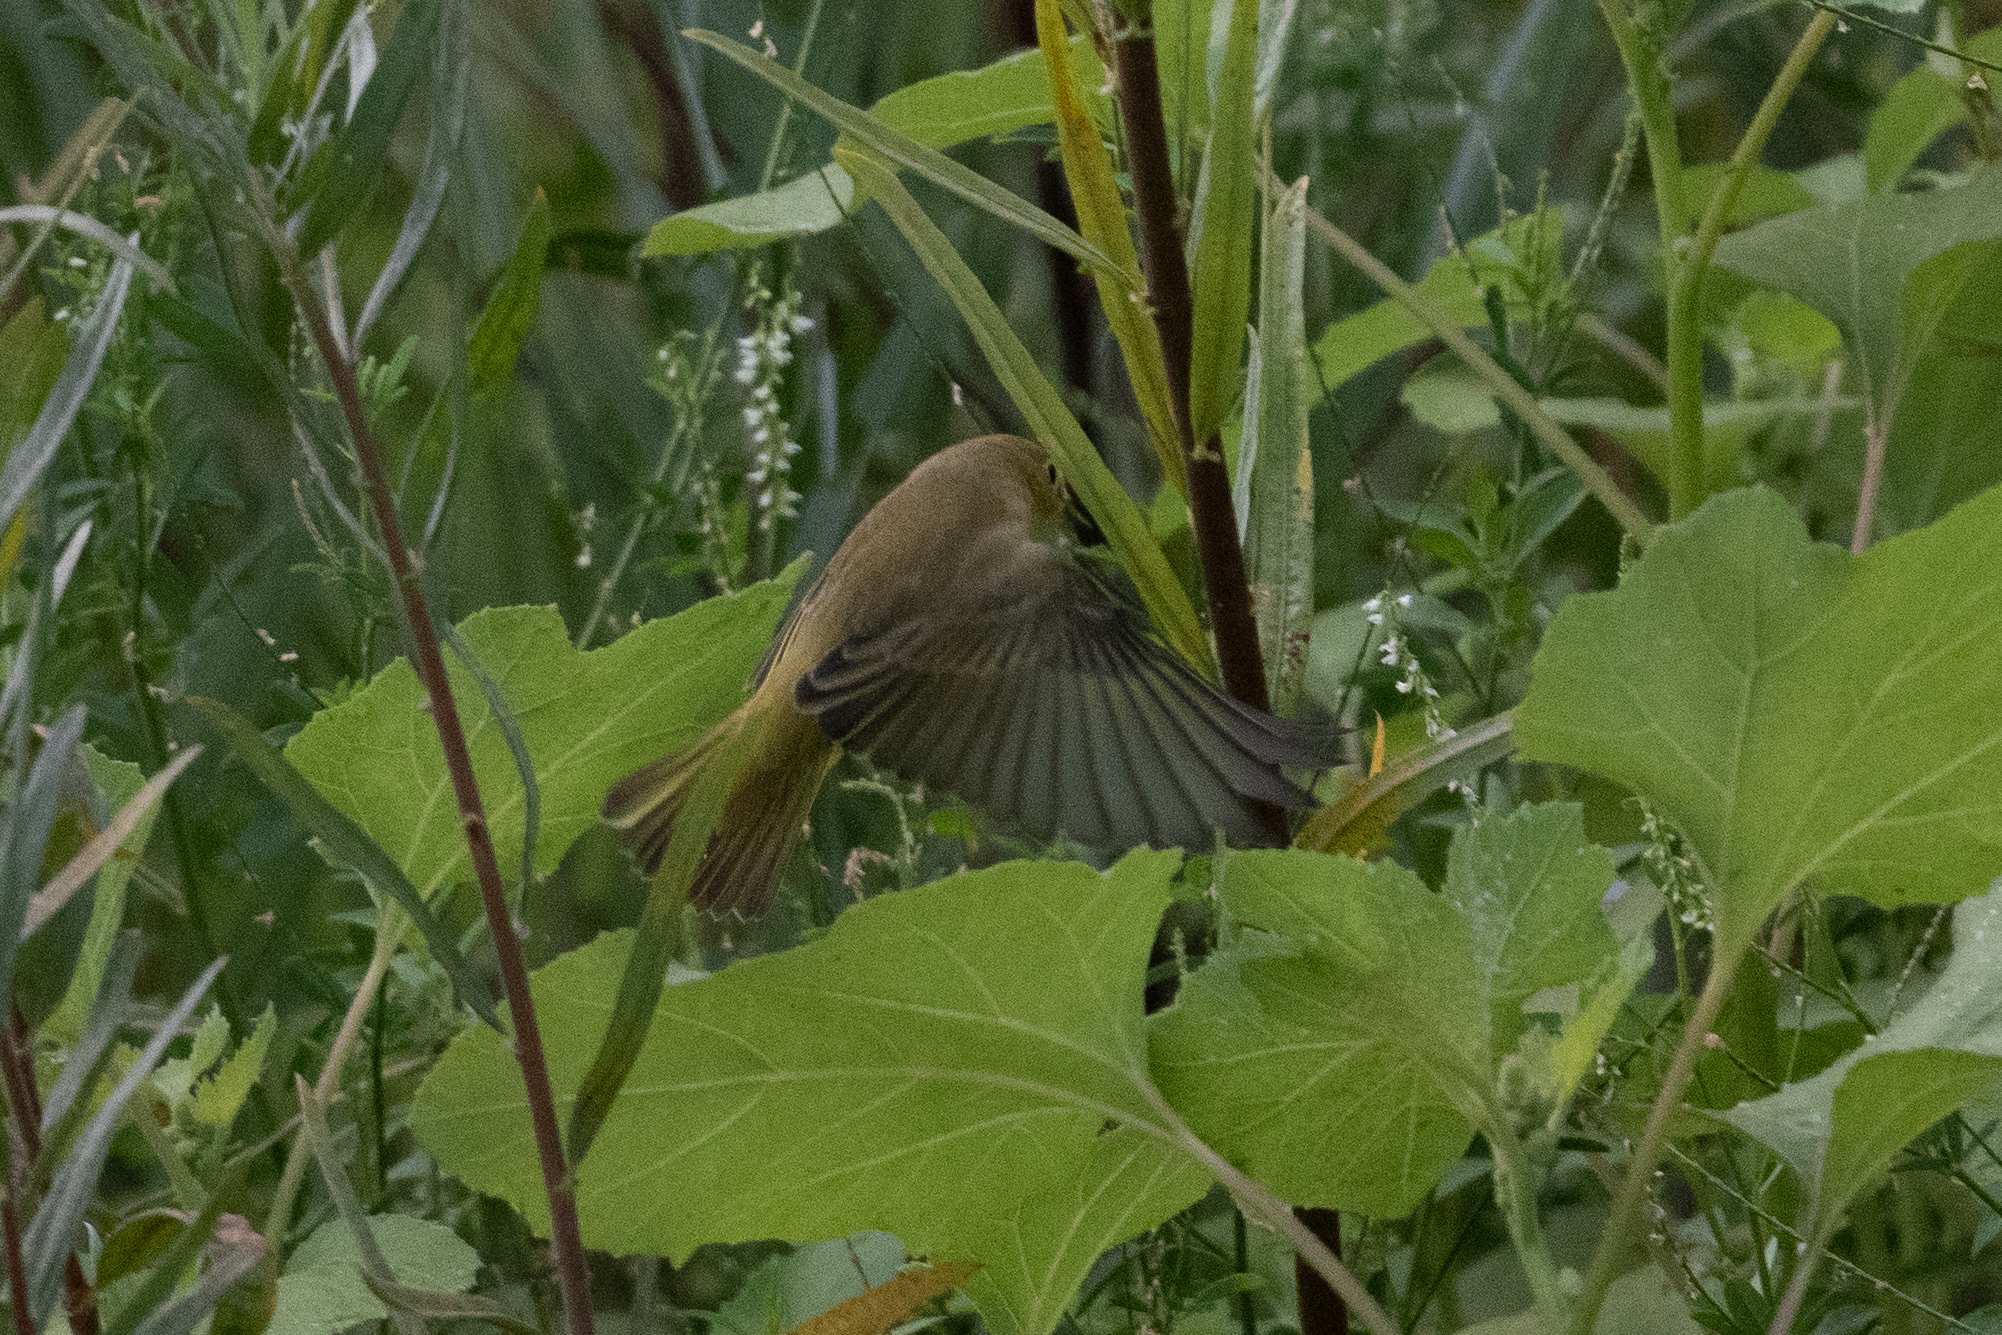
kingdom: Animalia
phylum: Chordata
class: Aves
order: Passeriformes
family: Parulidae
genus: Setophaga
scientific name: Setophaga petechia
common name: Yellow warbler
